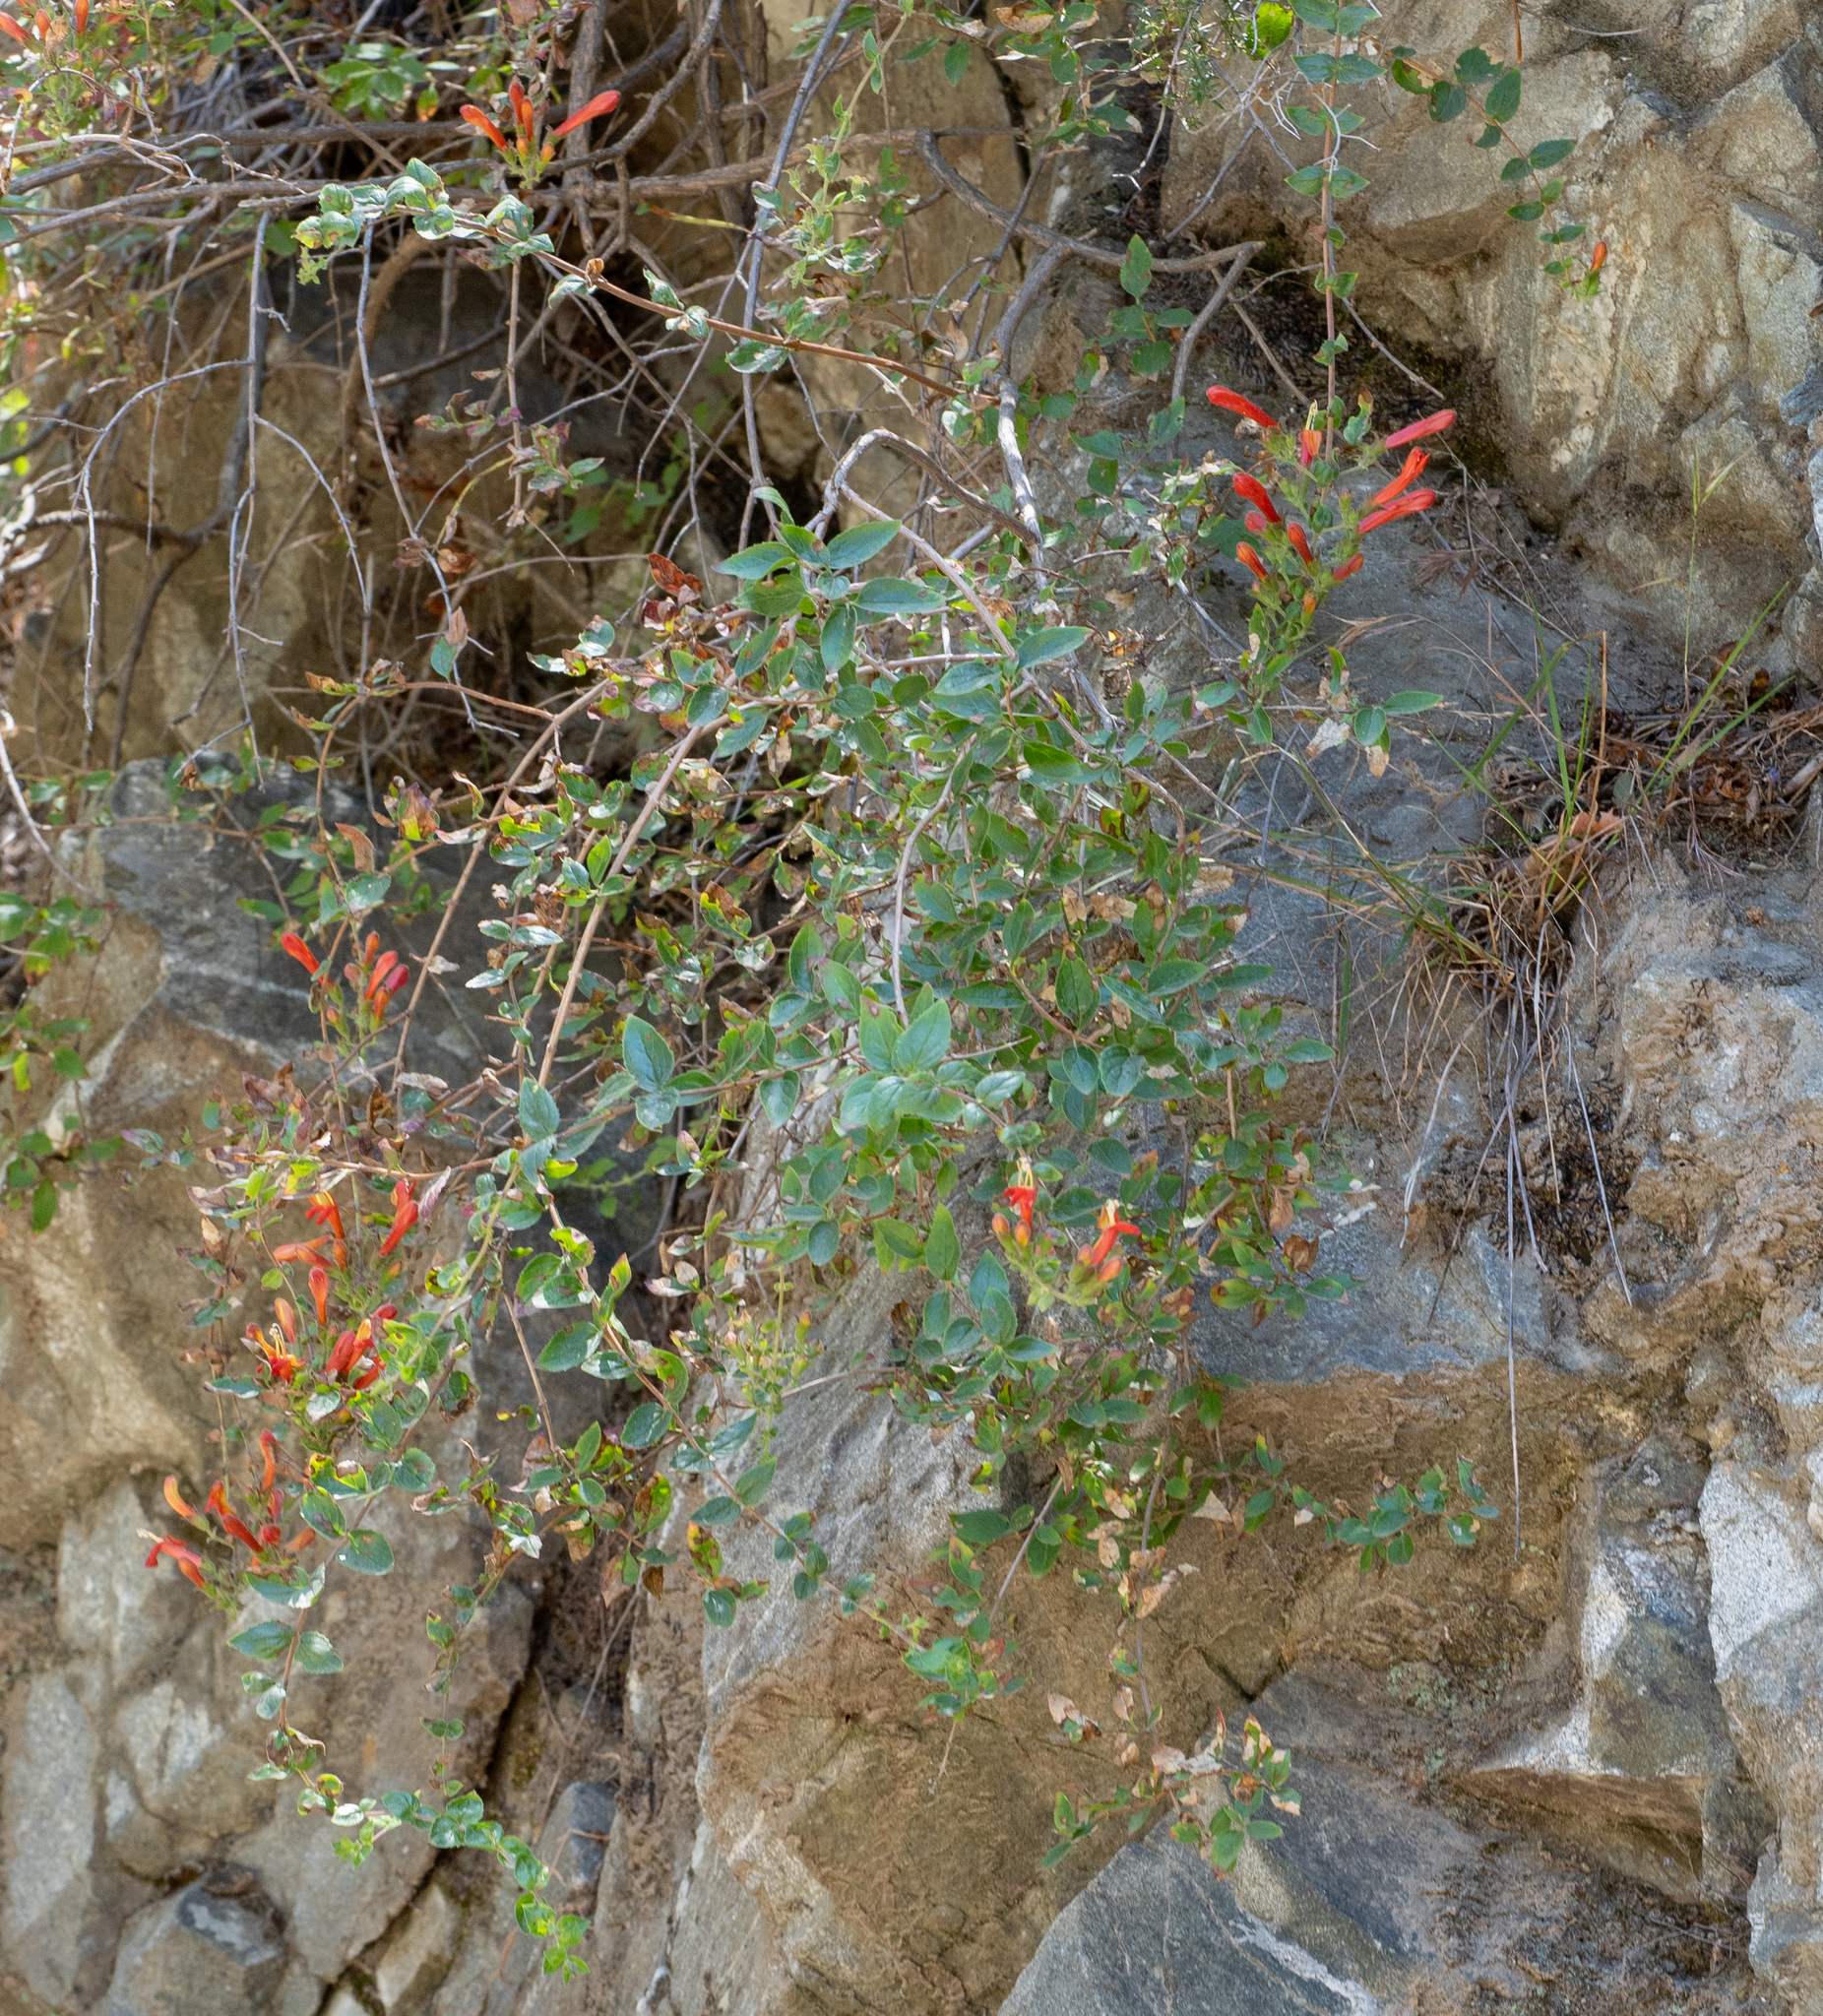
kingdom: Plantae
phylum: Tracheophyta
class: Magnoliopsida
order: Lamiales
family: Plantaginaceae
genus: Keckiella
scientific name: Keckiella cordifolia
